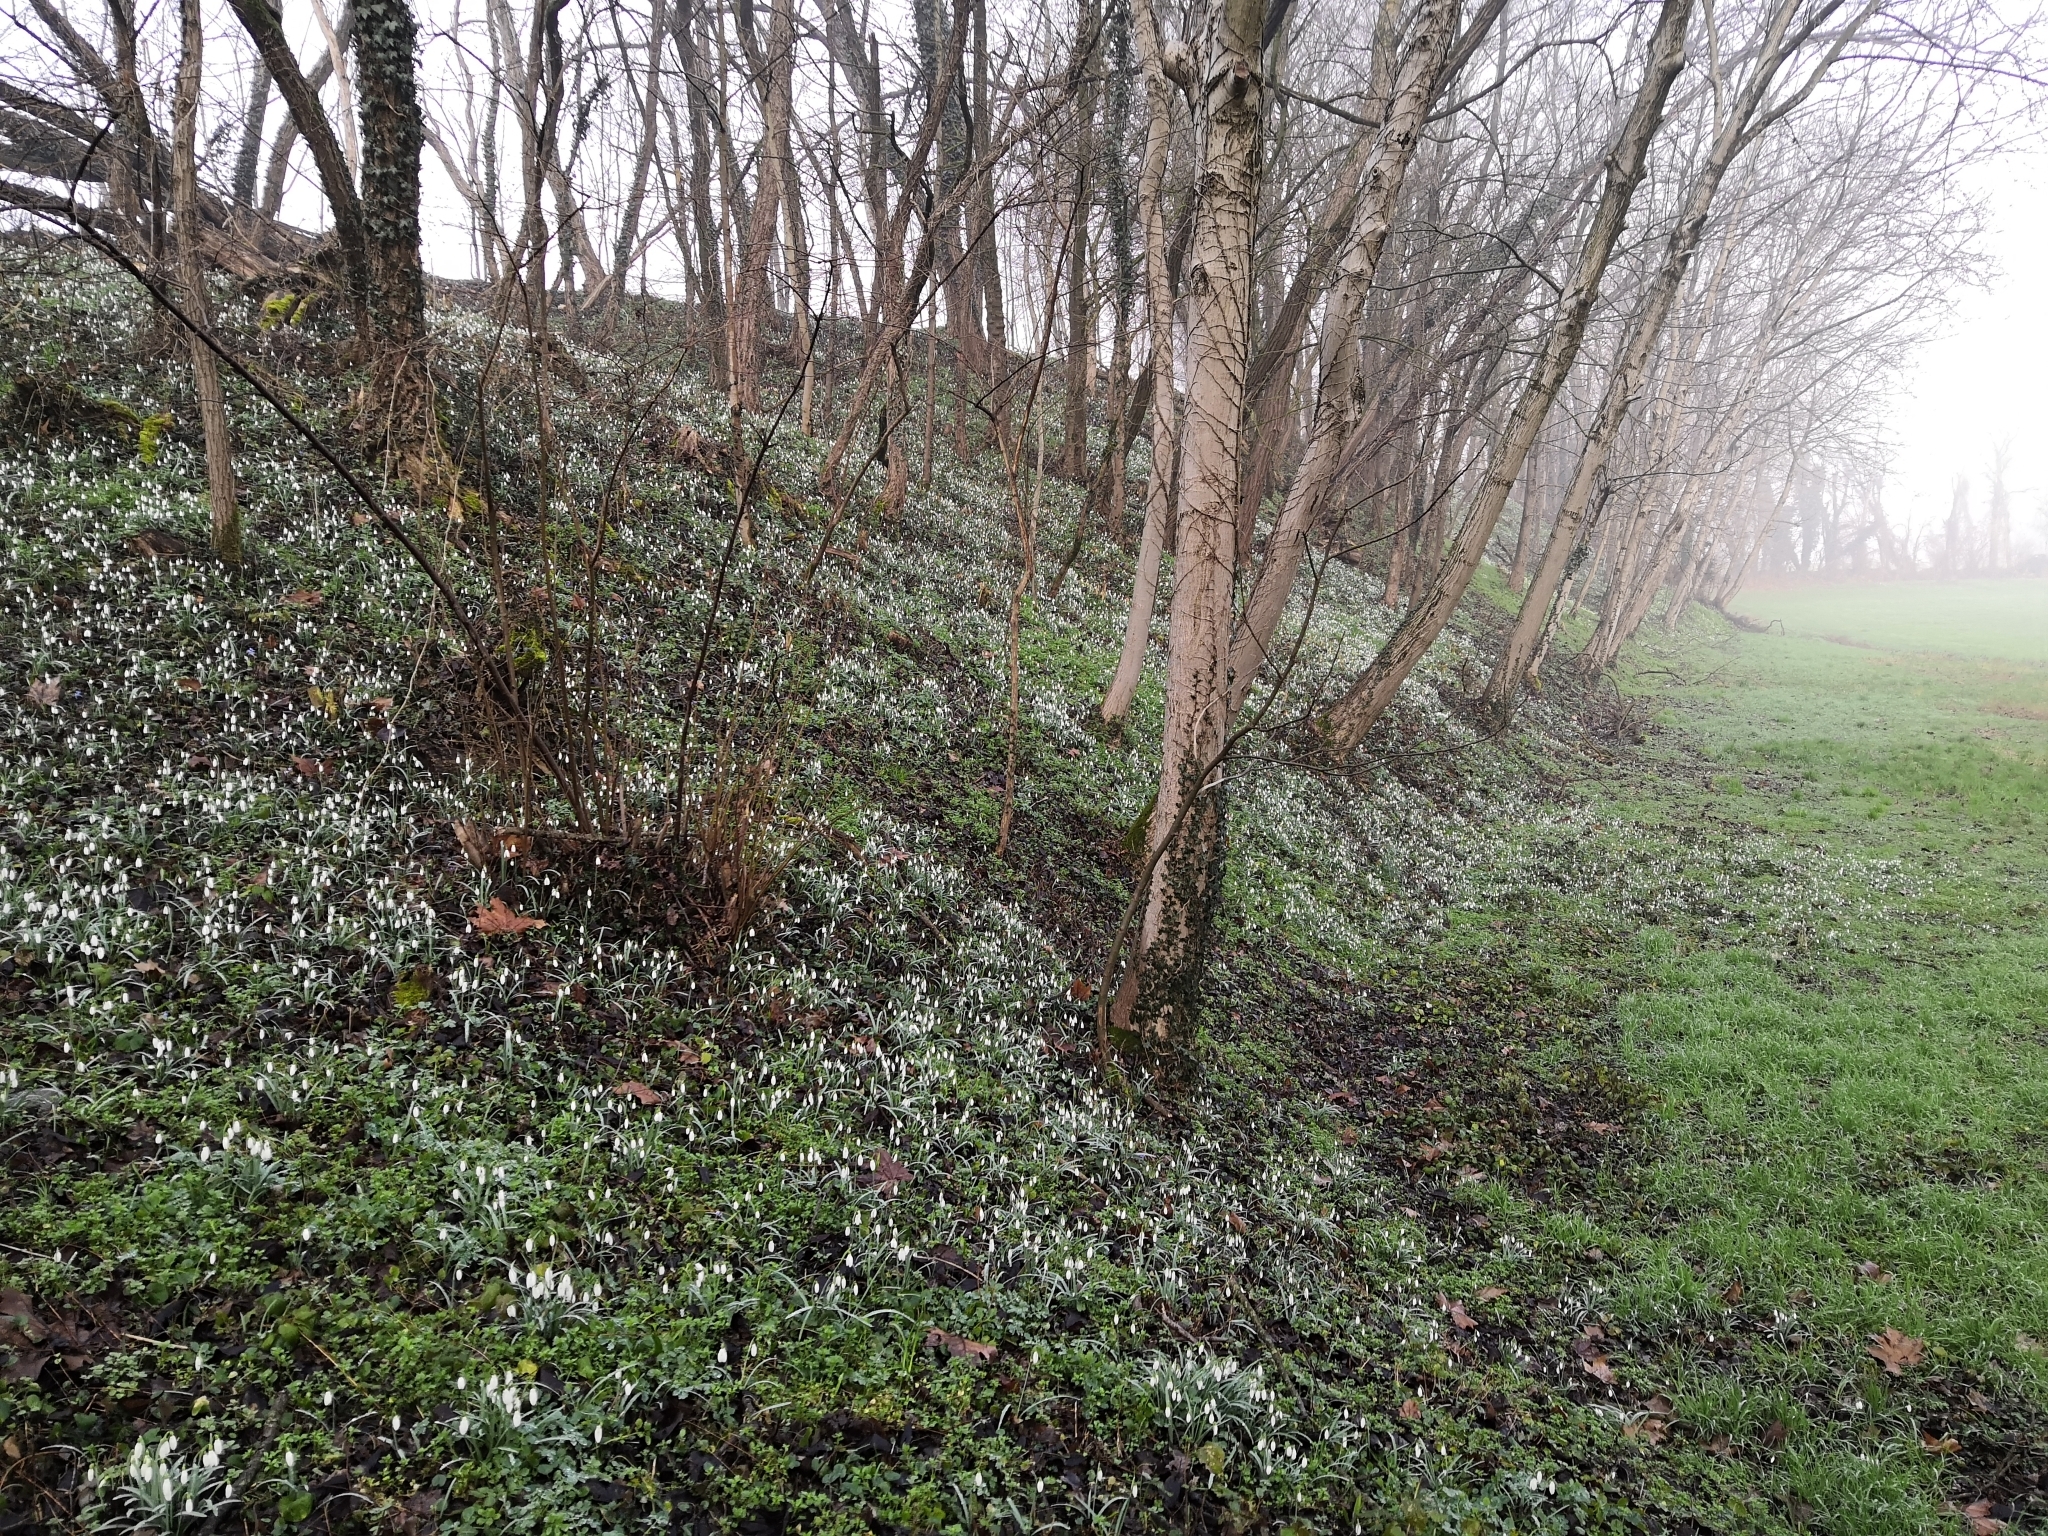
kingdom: Plantae
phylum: Tracheophyta
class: Liliopsida
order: Asparagales
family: Amaryllidaceae
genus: Galanthus
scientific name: Galanthus nivalis
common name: Snowdrop
